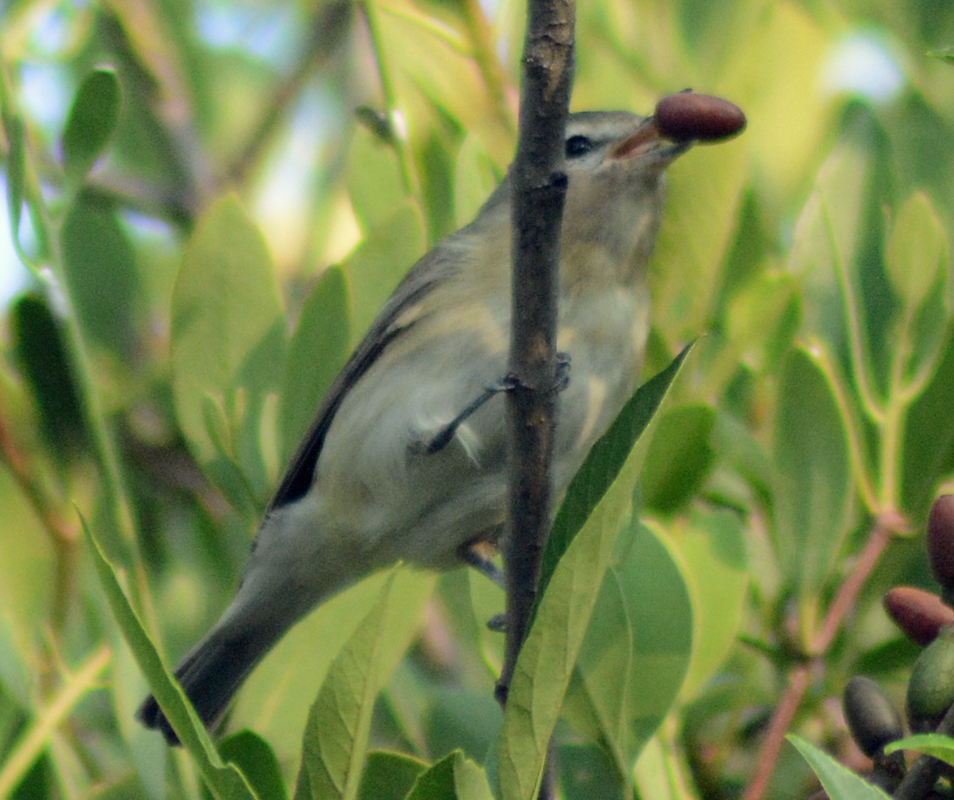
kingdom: Animalia
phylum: Chordata
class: Aves
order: Passeriformes
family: Vireonidae
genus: Vireo
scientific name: Vireo gilvus
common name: Warbling vireo
